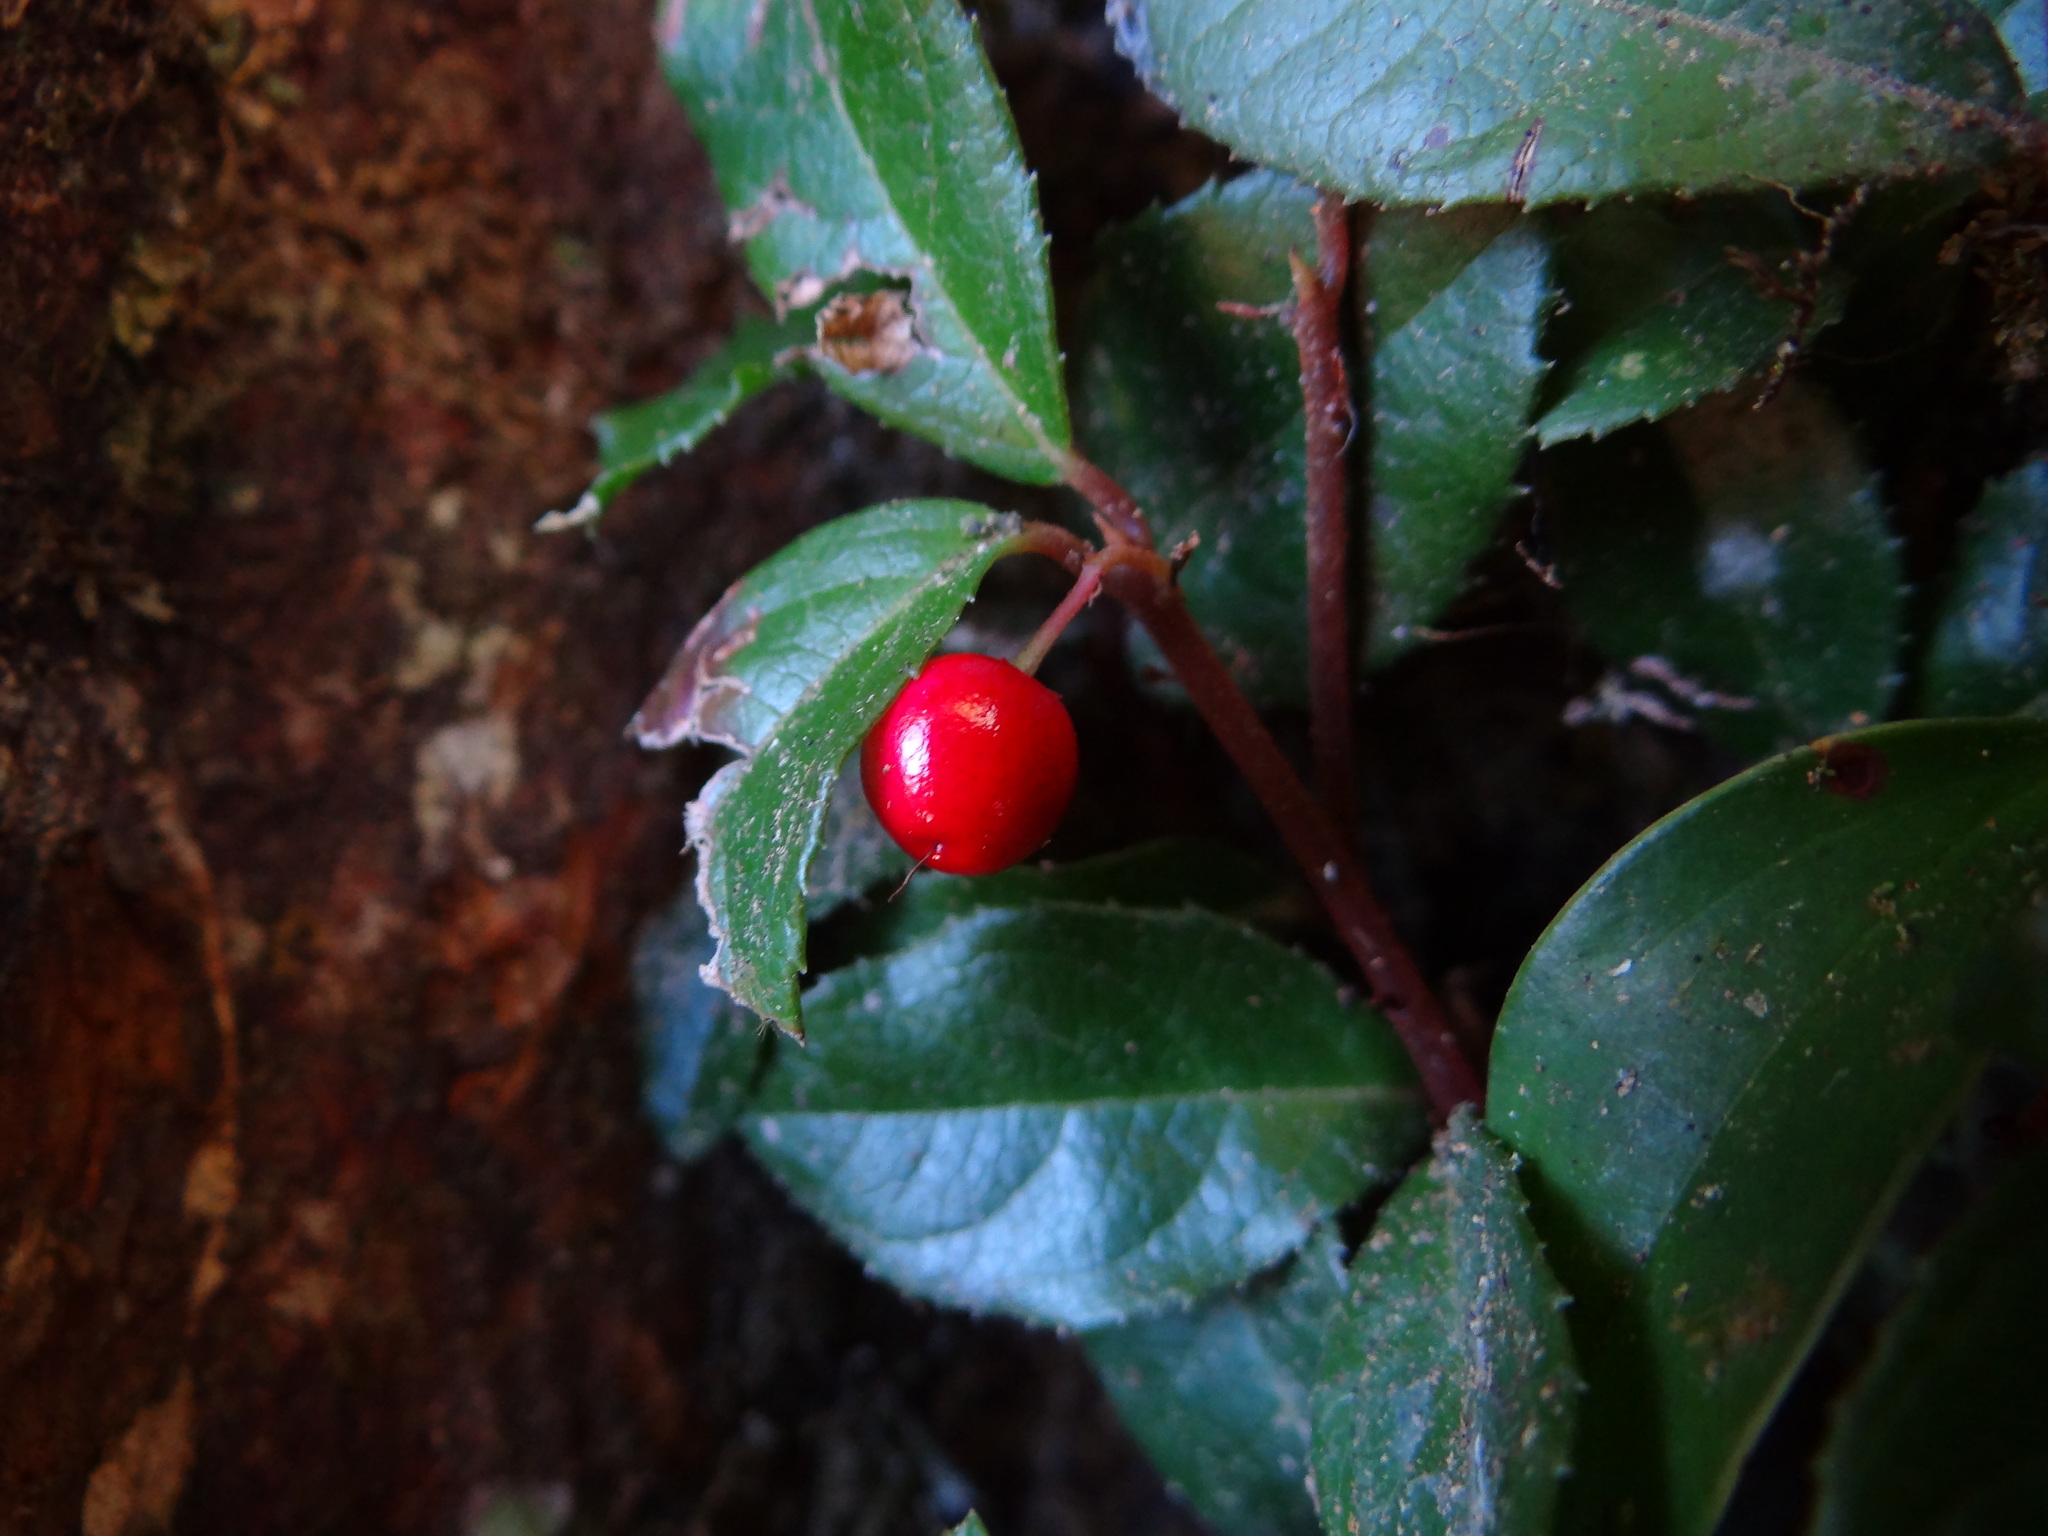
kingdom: Plantae
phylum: Tracheophyta
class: Magnoliopsida
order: Ericales
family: Primulaceae
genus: Ardisia
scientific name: Ardisia japonica
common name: Marlberry
